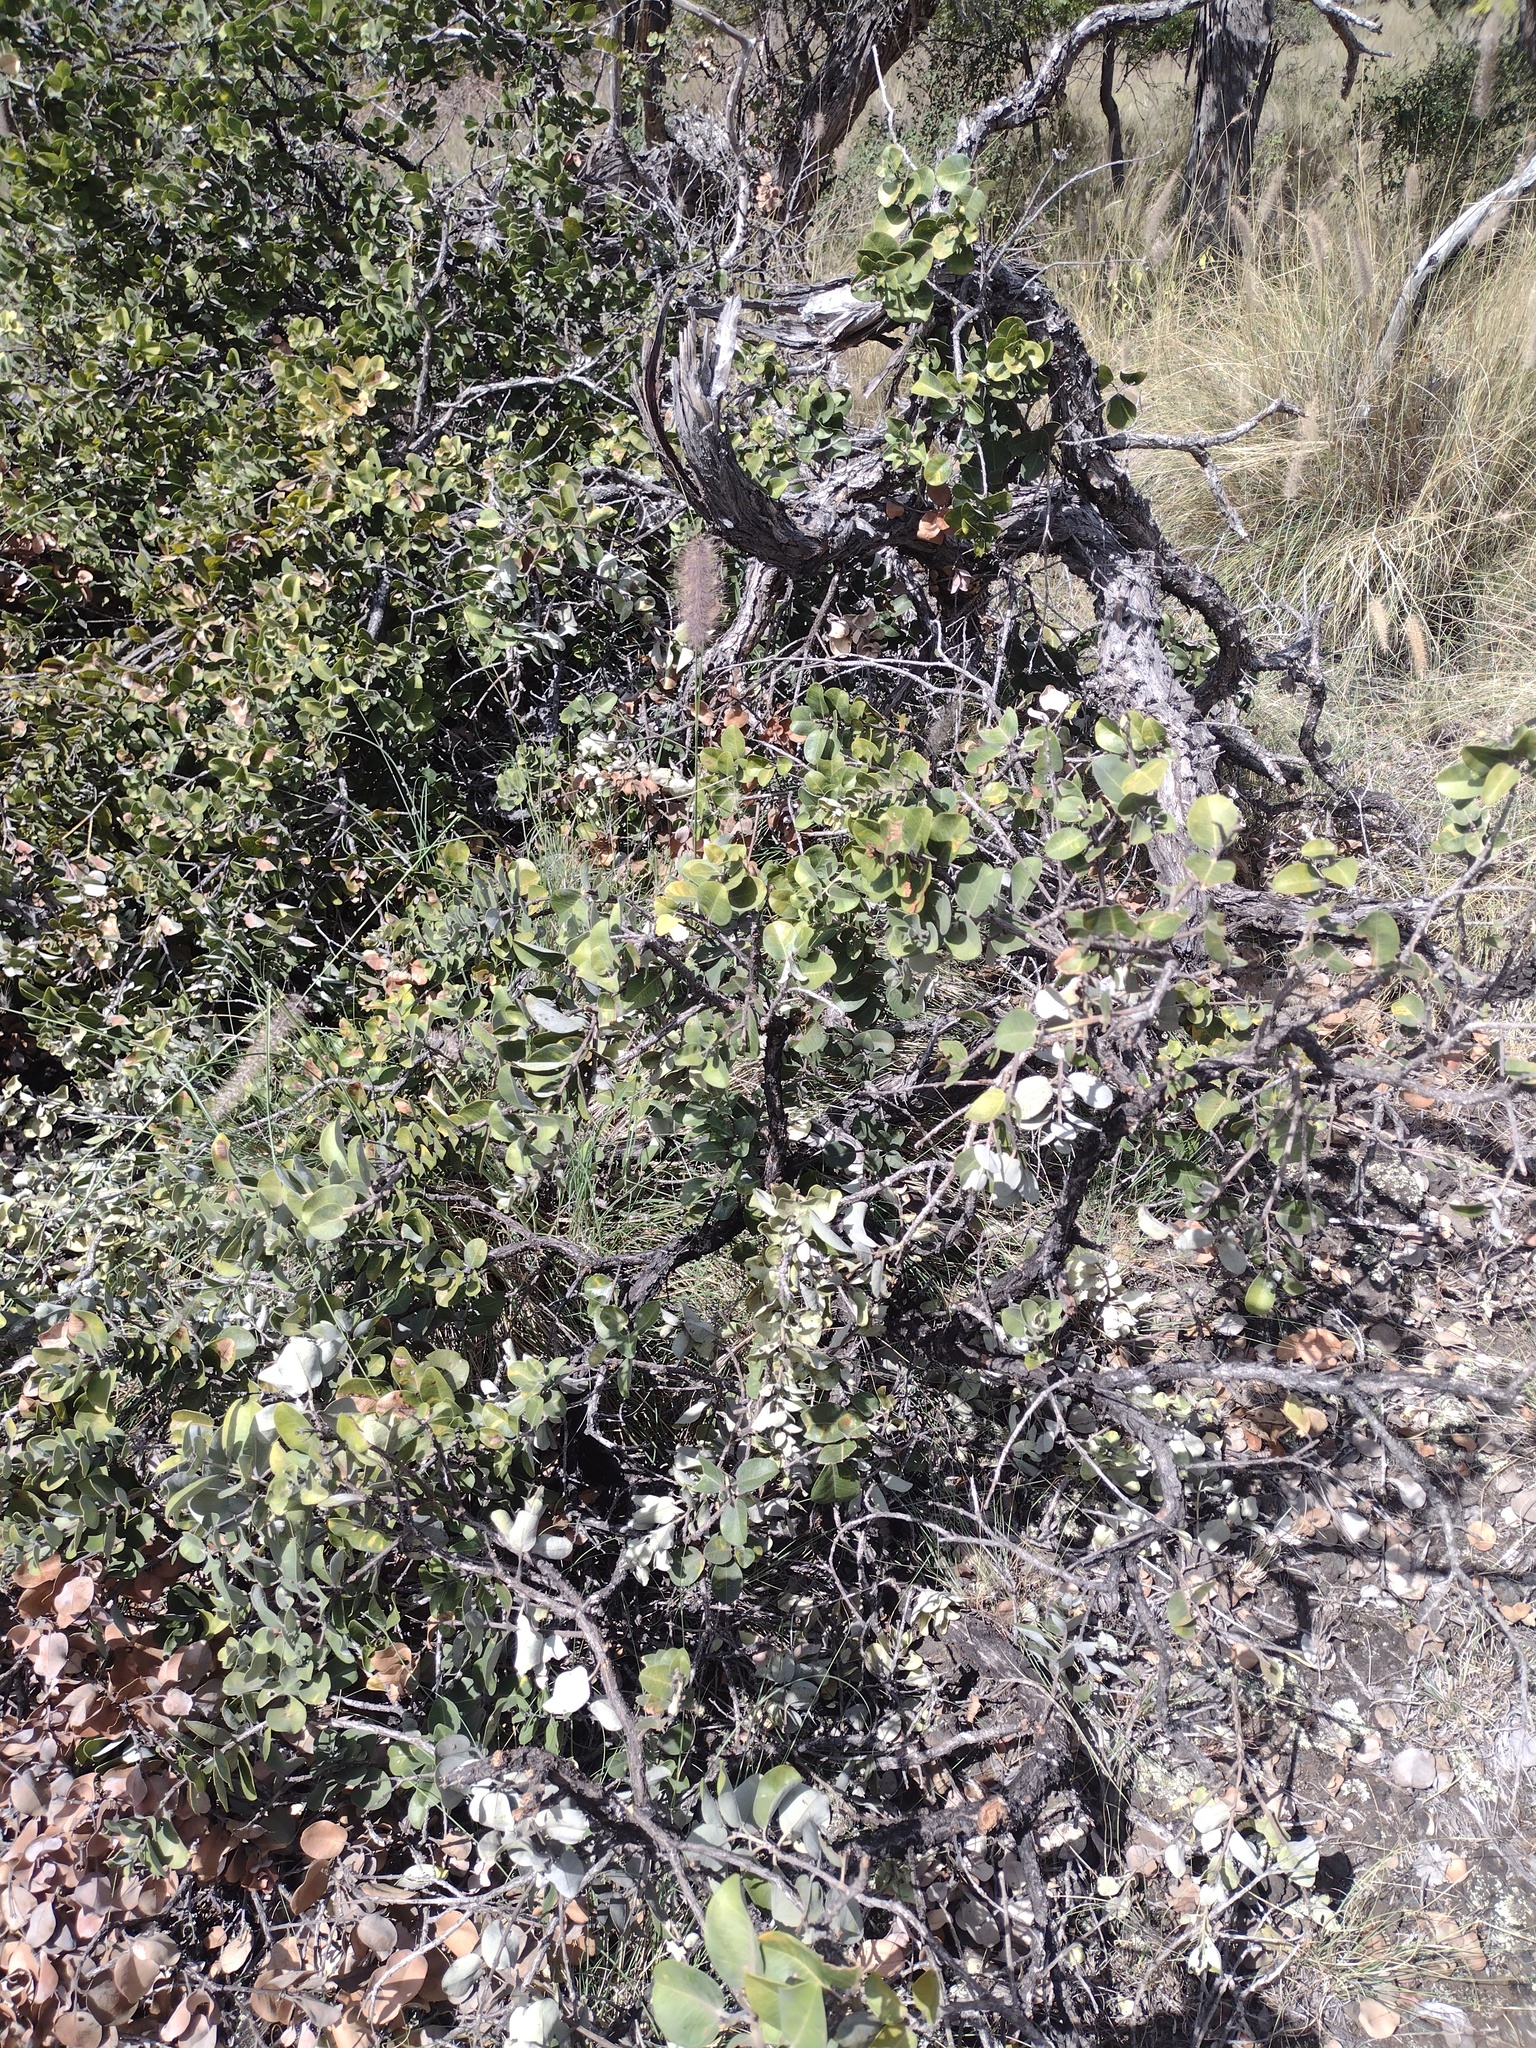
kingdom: Plantae
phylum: Tracheophyta
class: Magnoliopsida
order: Myrtales
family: Myrtaceae
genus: Metrosideros
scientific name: Metrosideros polymorpha
